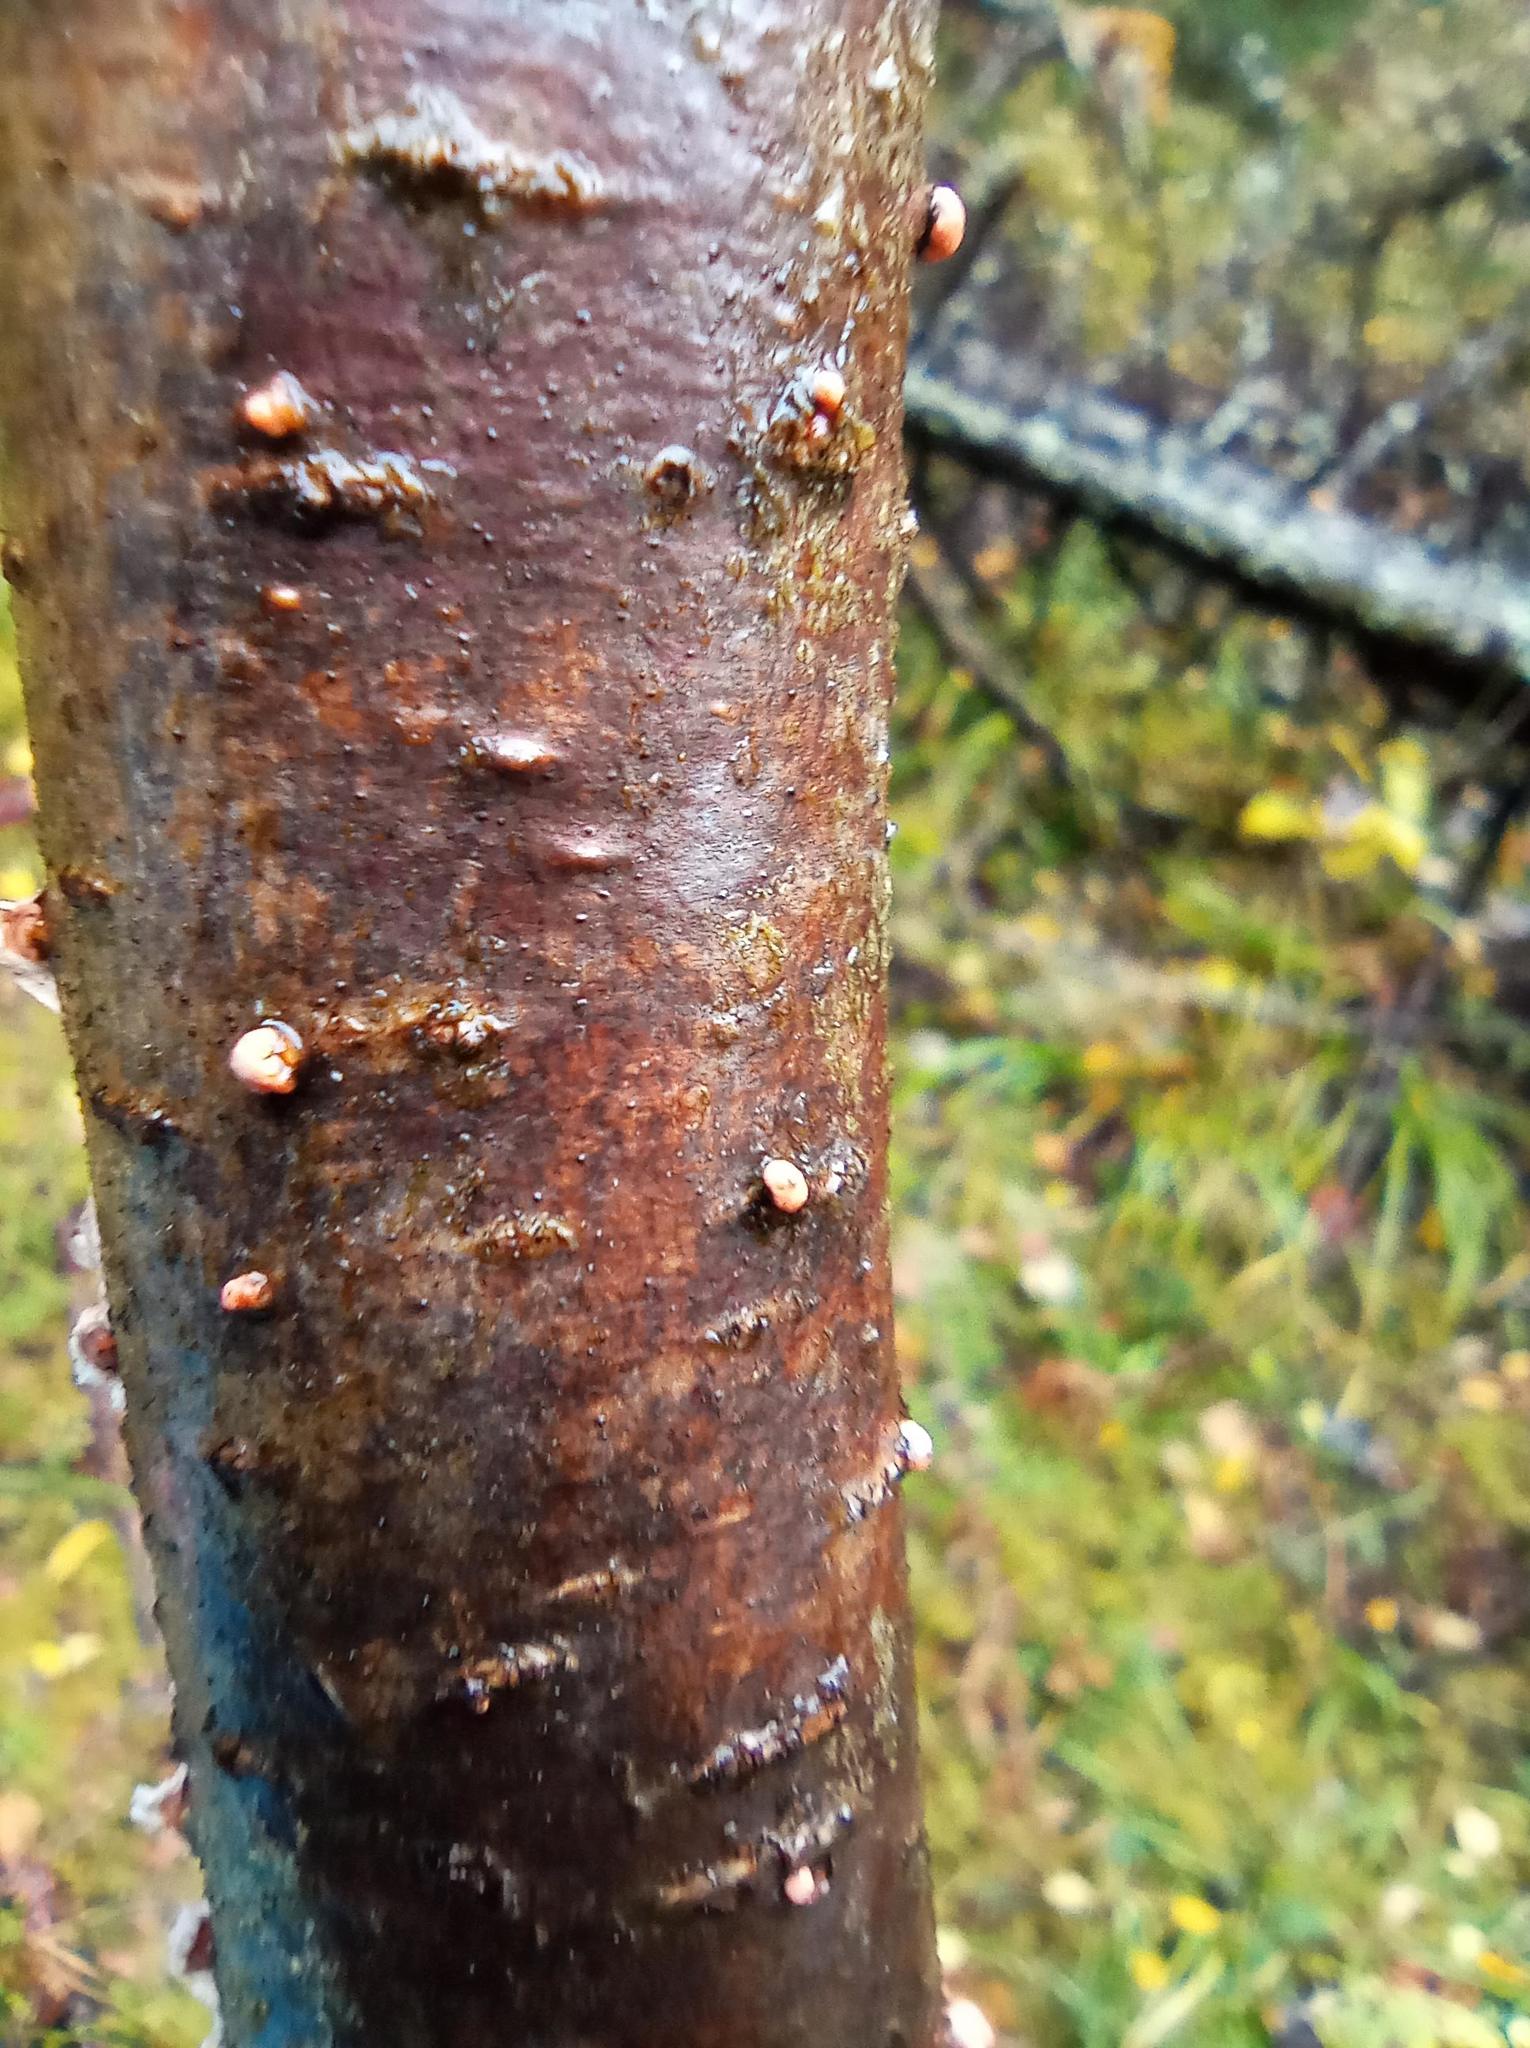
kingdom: Fungi
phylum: Ascomycota
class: Sordariomycetes
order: Hypocreales
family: Nectriaceae
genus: Nectria
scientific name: Nectria cinnabarina
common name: Coral spot
